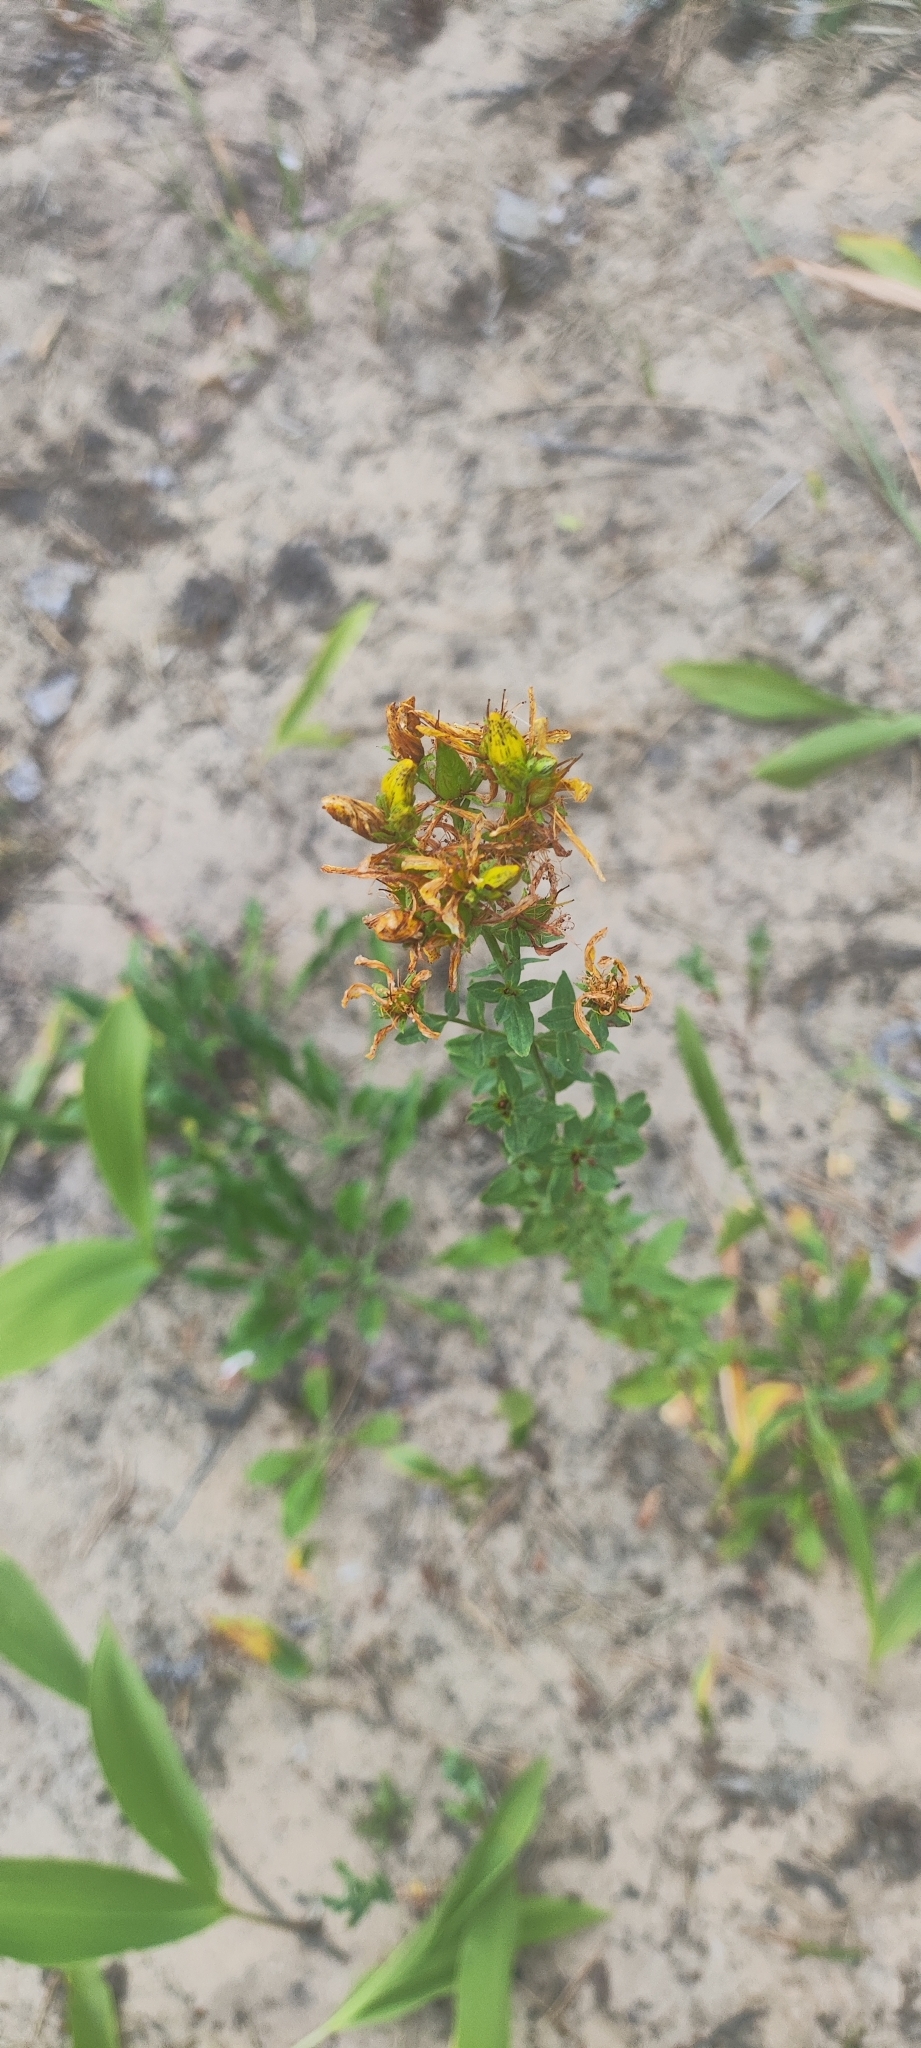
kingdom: Plantae
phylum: Tracheophyta
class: Magnoliopsida
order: Malpighiales
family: Hypericaceae
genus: Hypericum
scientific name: Hypericum perforatum
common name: Common st. johnswort
